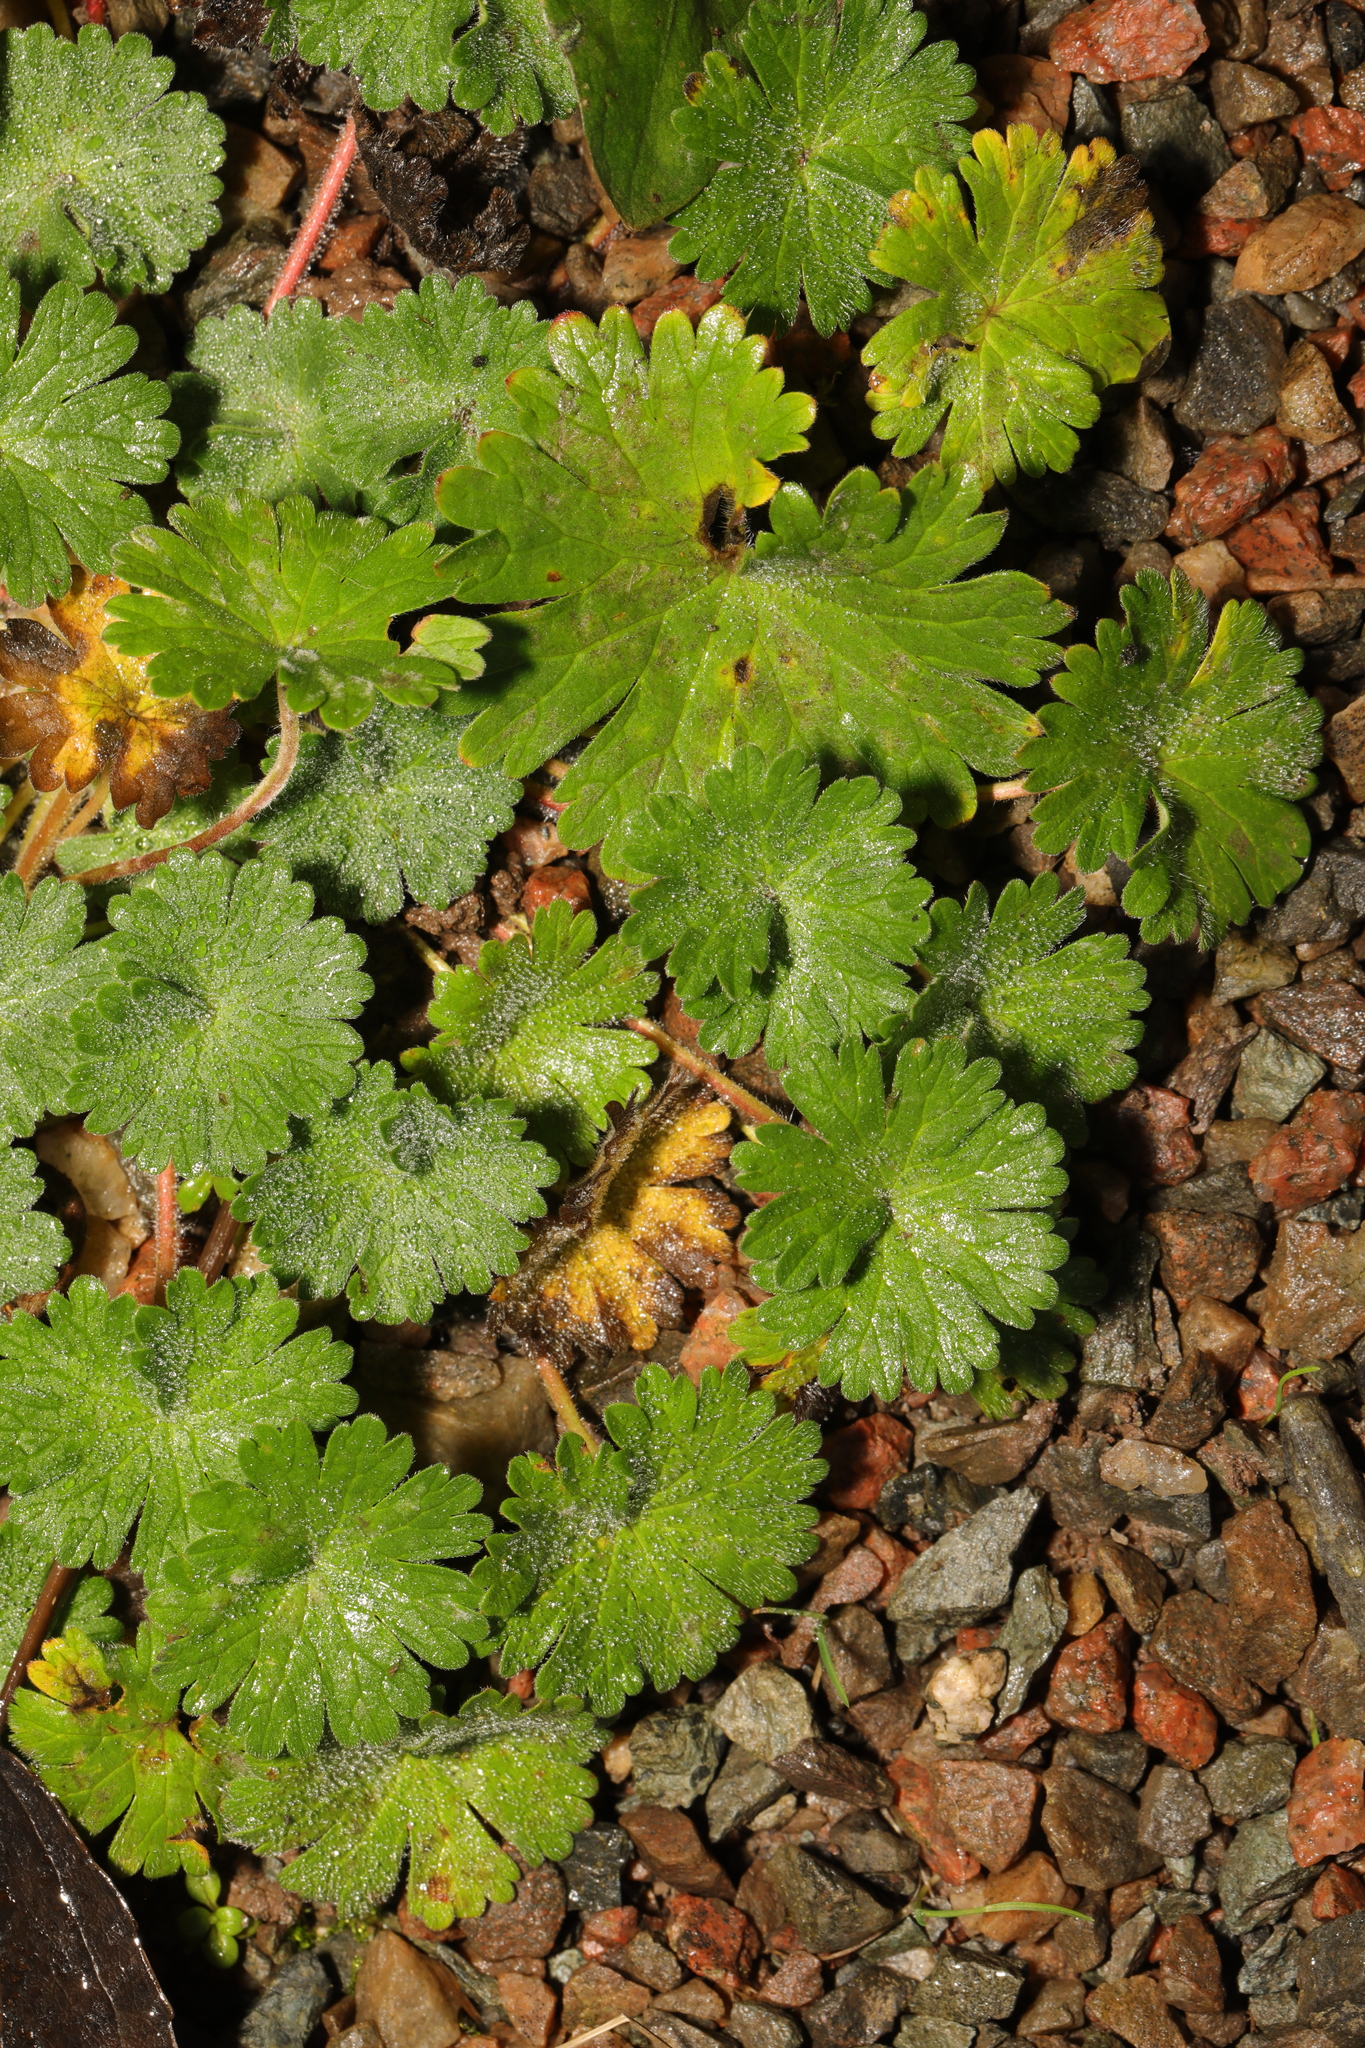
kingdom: Plantae
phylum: Tracheophyta
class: Magnoliopsida
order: Geraniales
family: Geraniaceae
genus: Geranium
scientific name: Geranium molle
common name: Dove's-foot crane's-bill
